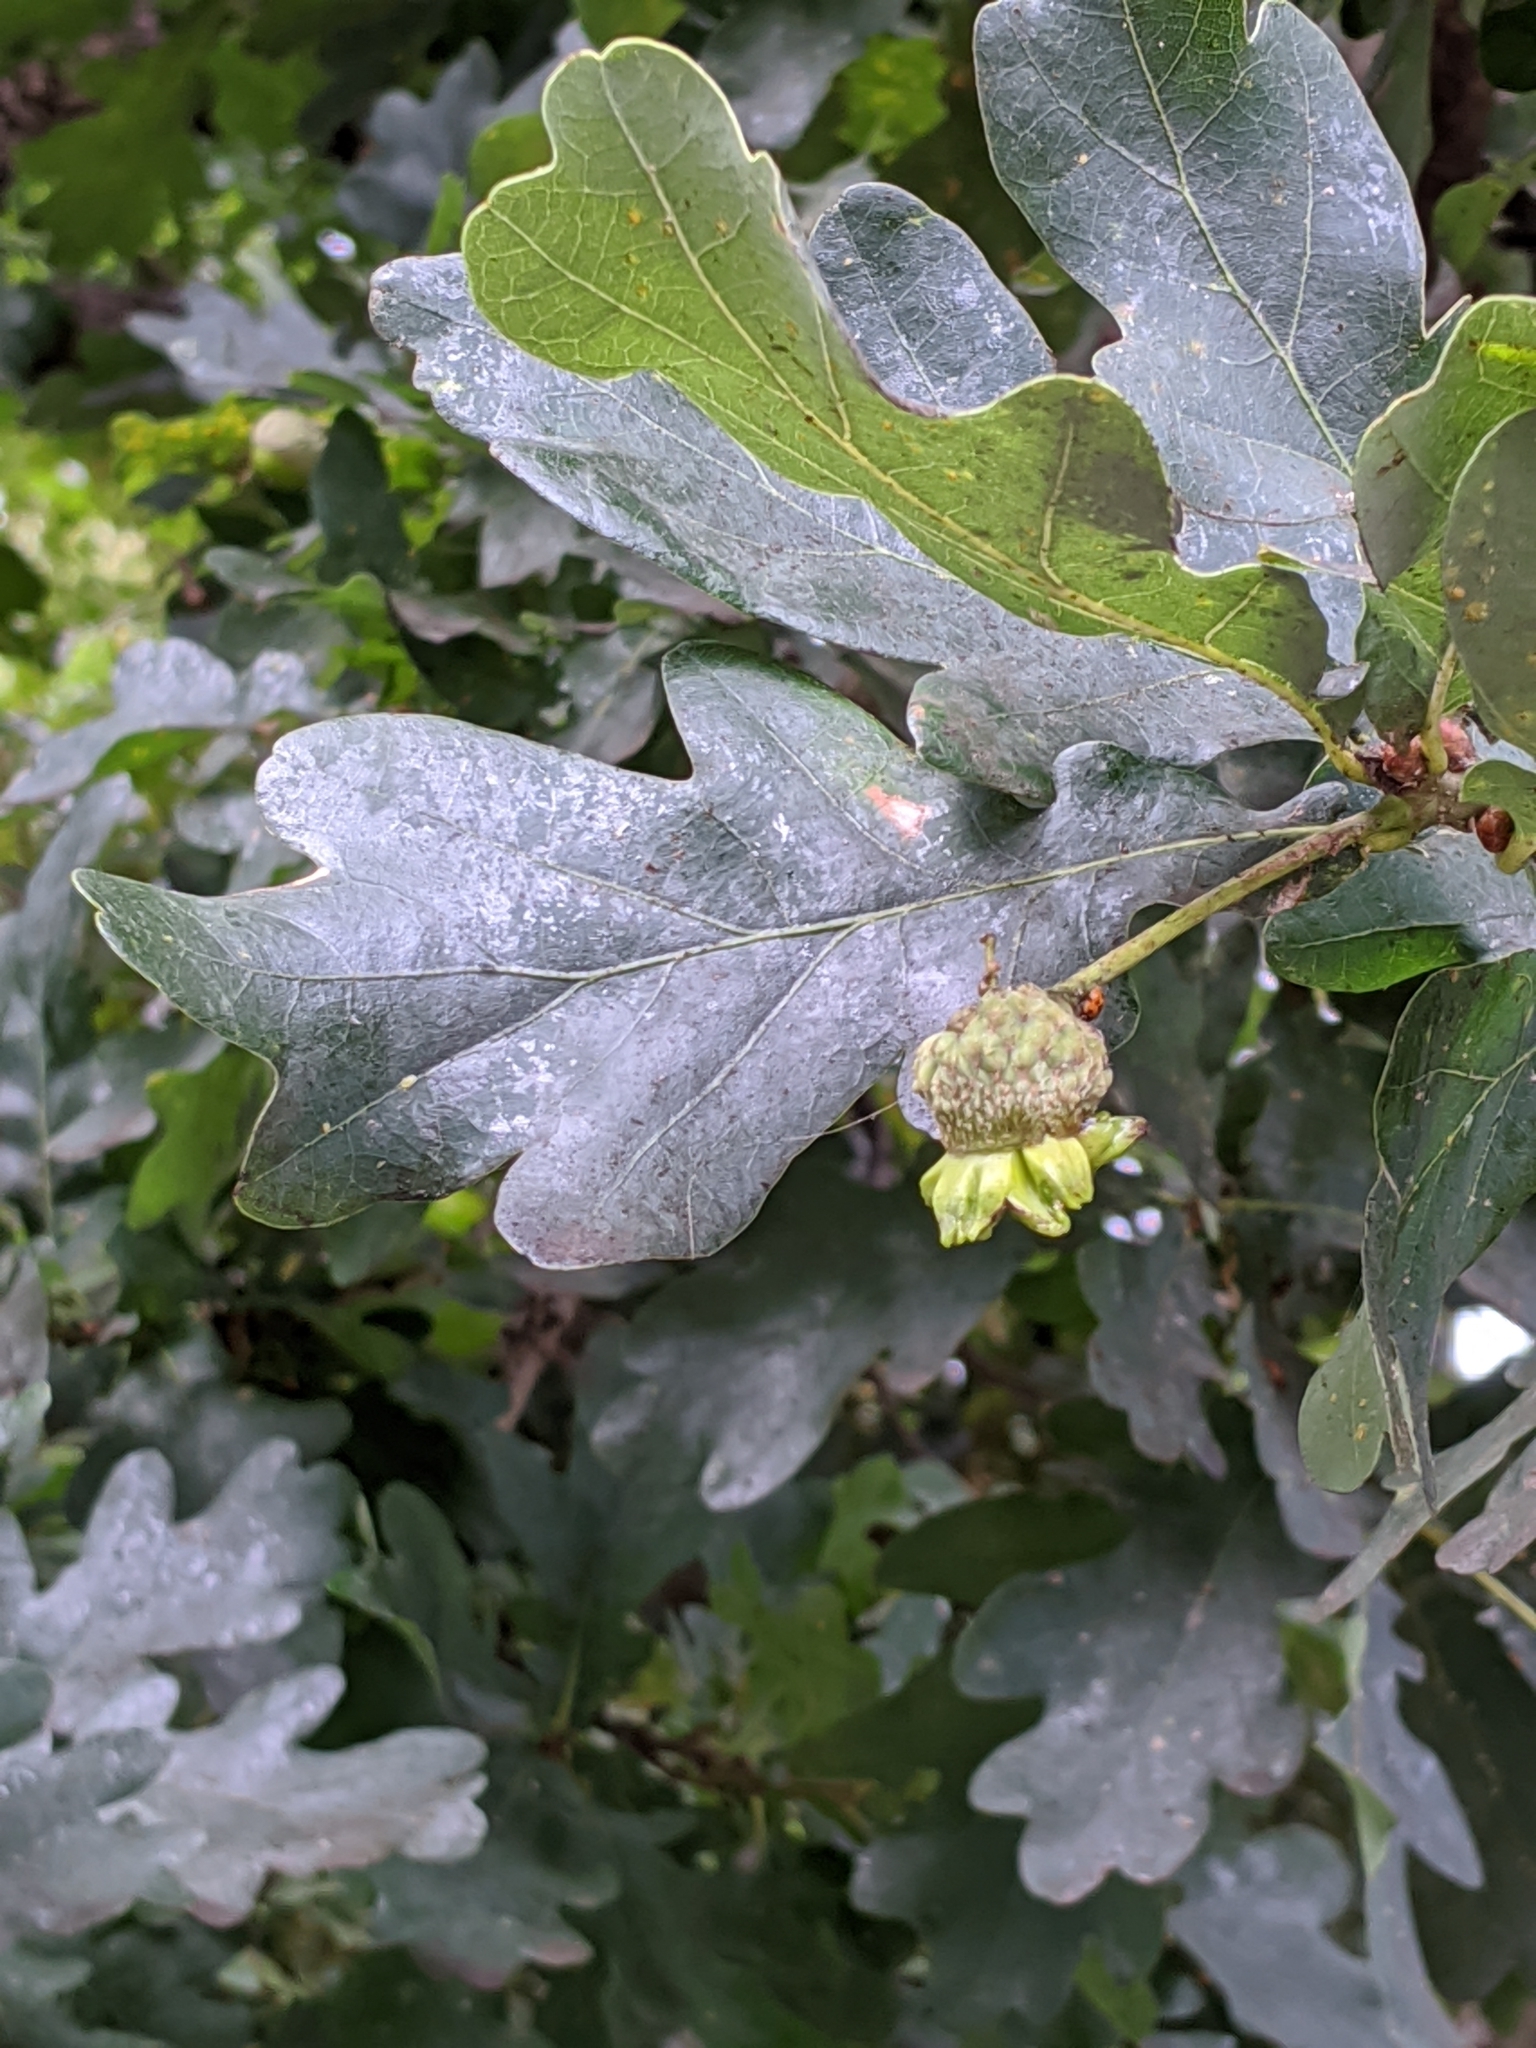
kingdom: Animalia
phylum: Arthropoda
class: Insecta
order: Hymenoptera
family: Cynipidae
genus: Andricus
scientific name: Andricus quercuscalicis
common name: Knopper gall
